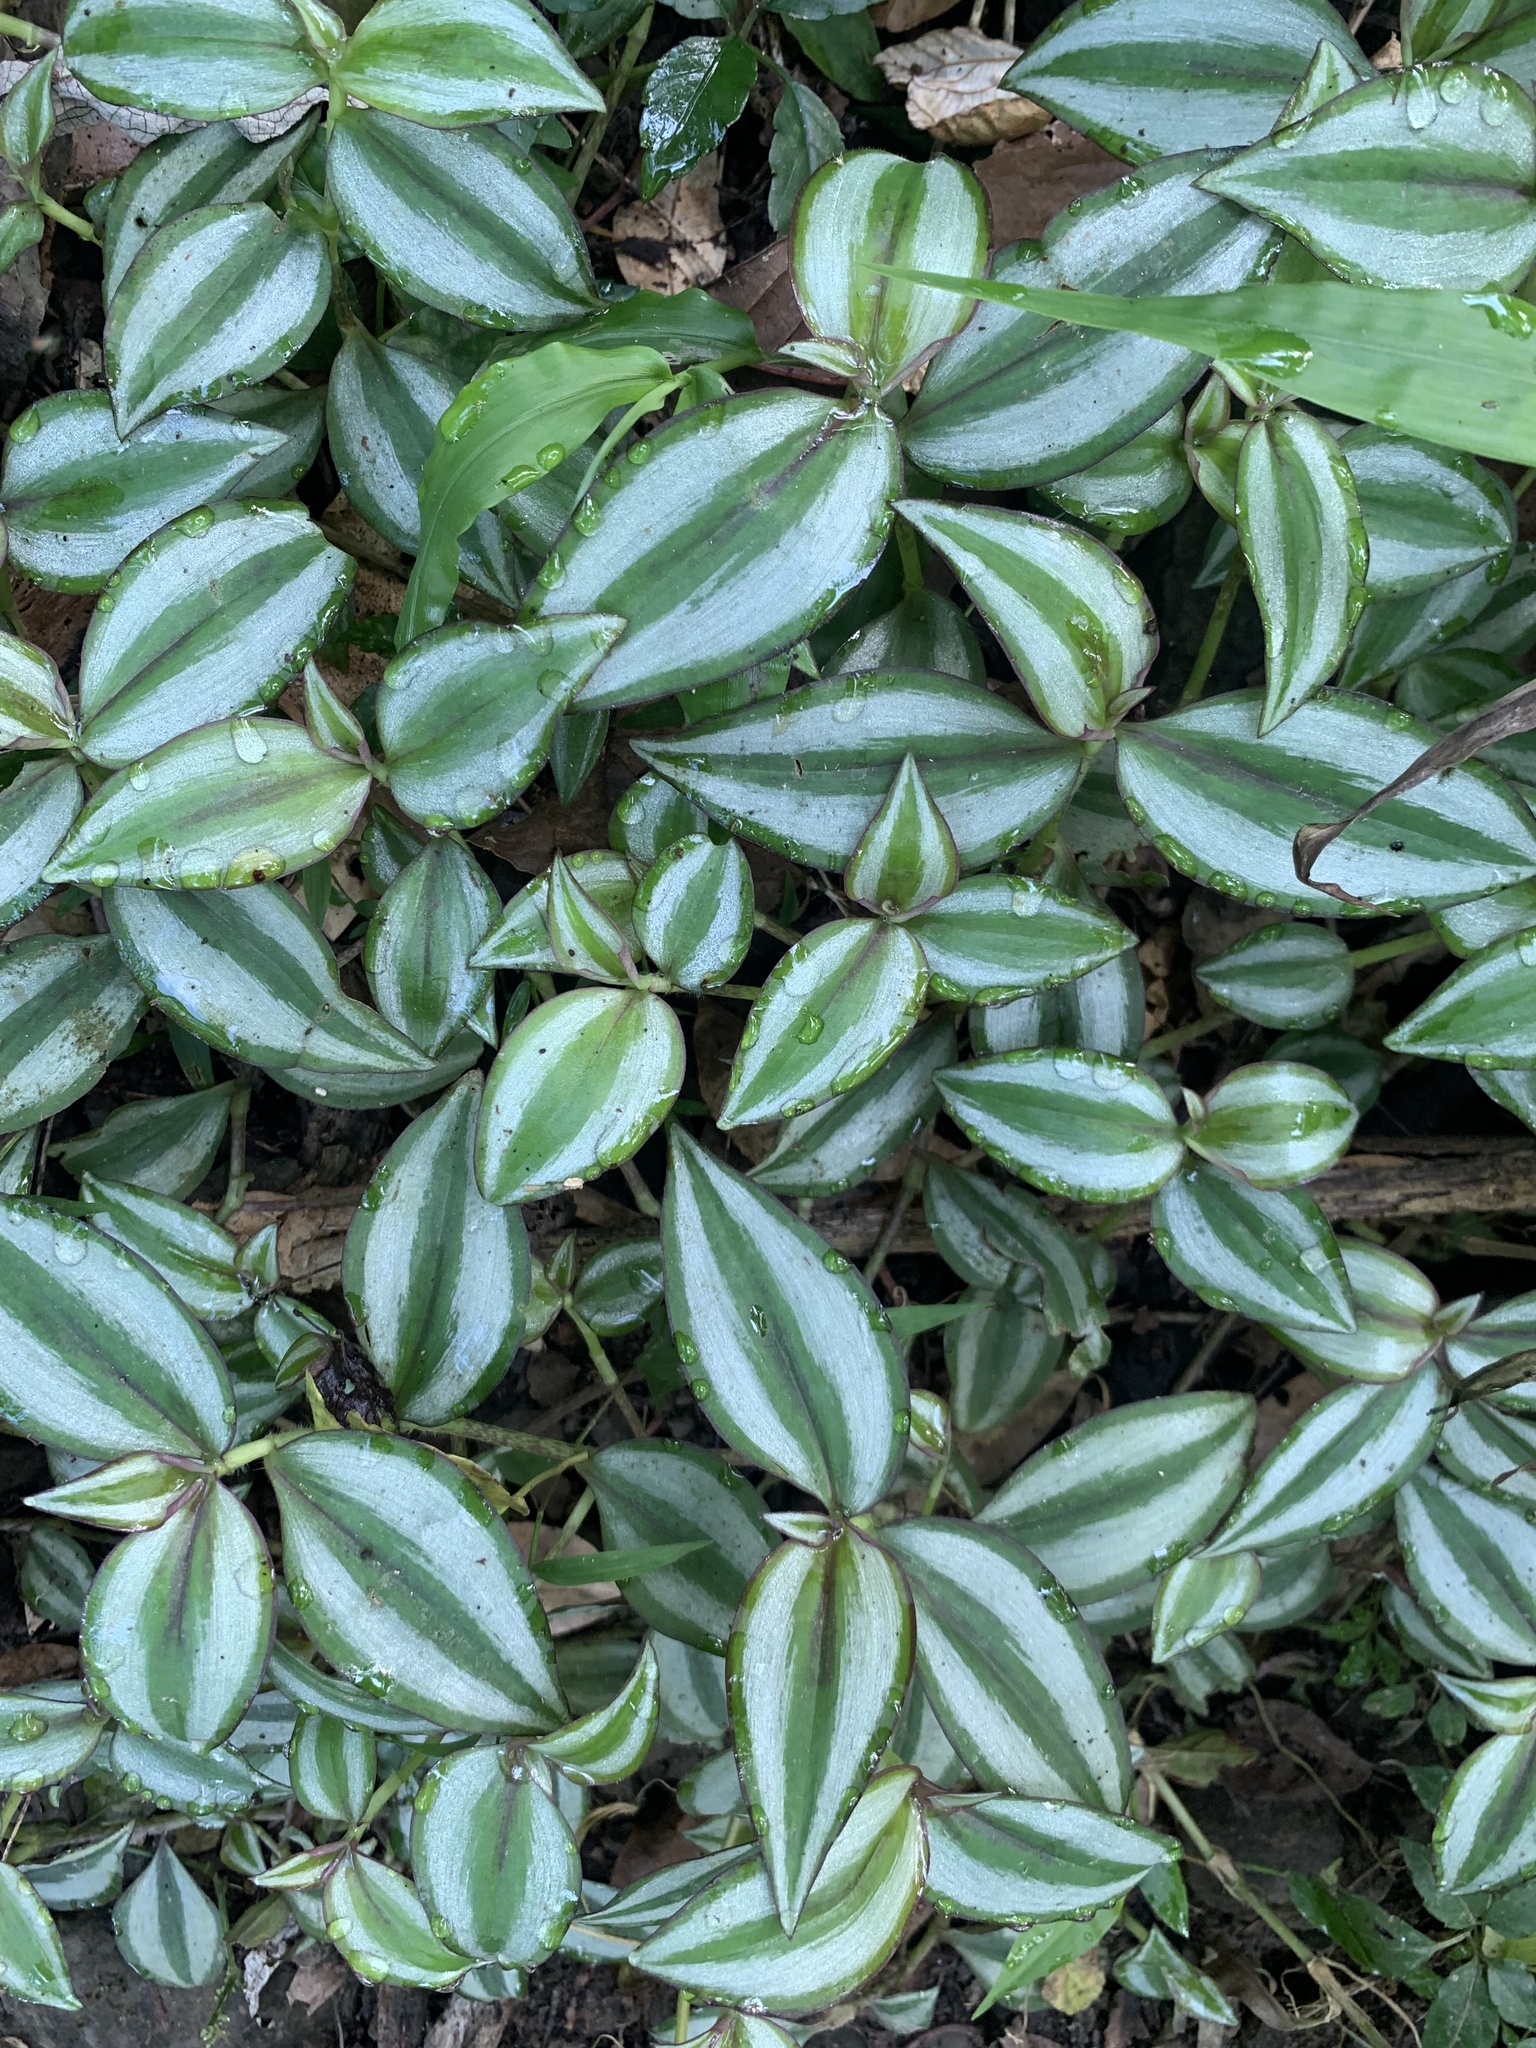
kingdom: Plantae
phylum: Tracheophyta
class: Liliopsida
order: Commelinales
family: Commelinaceae
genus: Tradescantia
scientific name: Tradescantia zebrina
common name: Inchplant
